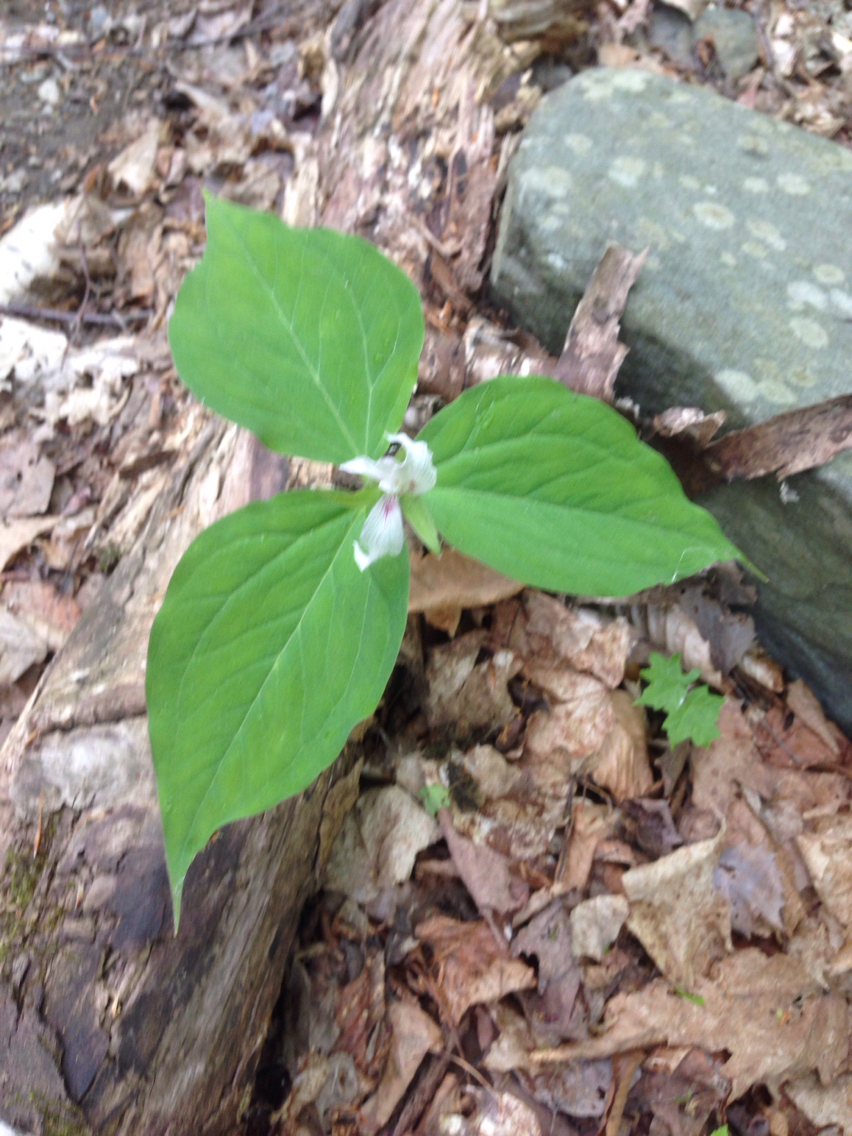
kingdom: Plantae
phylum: Tracheophyta
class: Liliopsida
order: Liliales
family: Melanthiaceae
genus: Trillium
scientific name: Trillium undulatum
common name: Paint trillium
